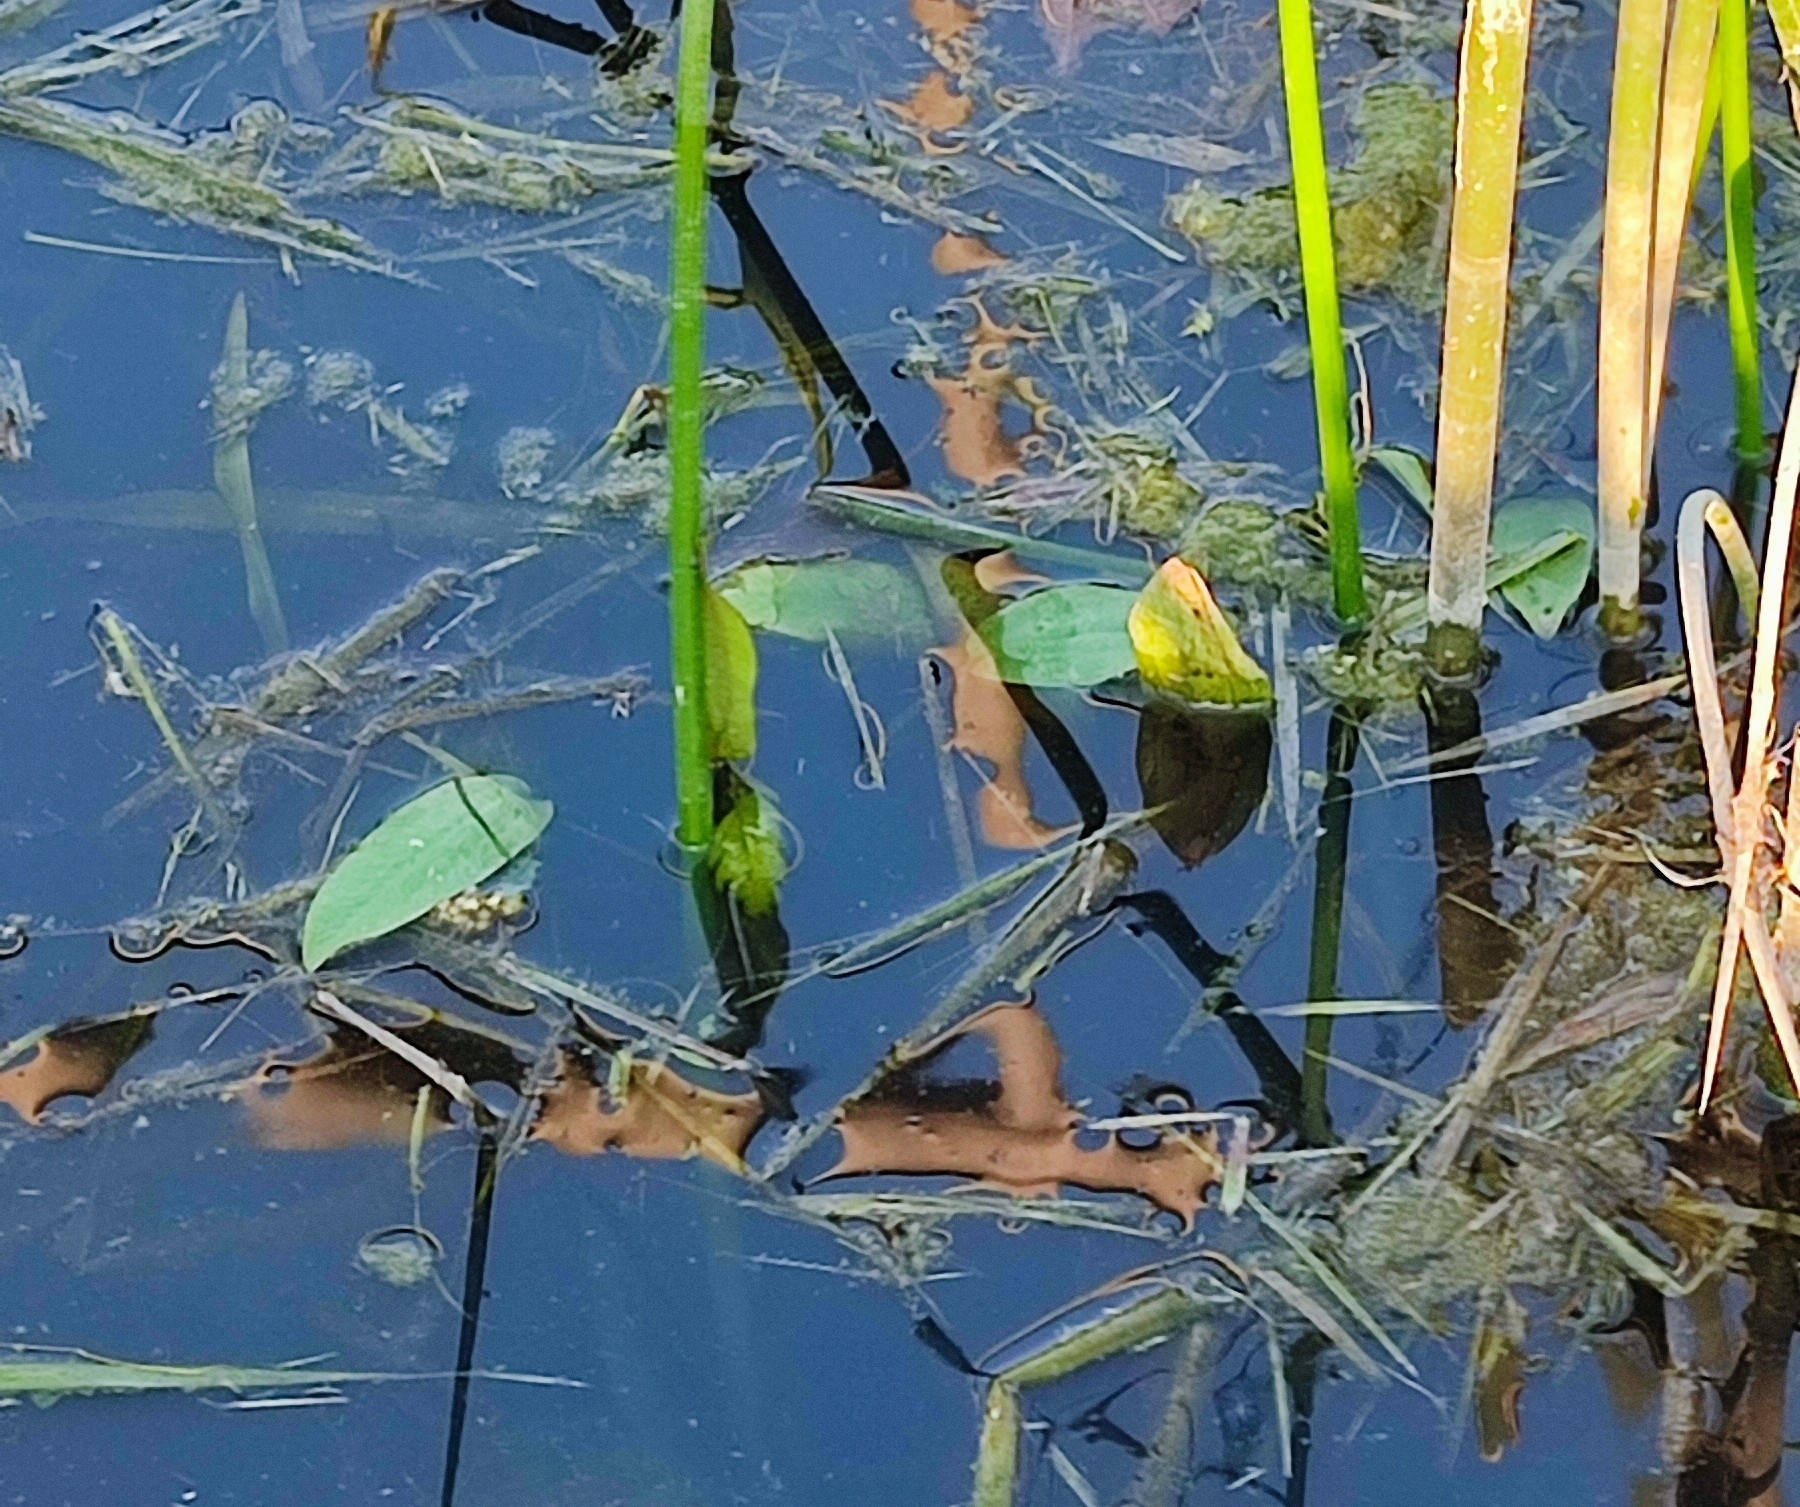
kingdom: Plantae
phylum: Tracheophyta
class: Liliopsida
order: Alismatales
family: Alismataceae
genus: Alisma
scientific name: Alisma plantago-aquatica
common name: Water-plantain
